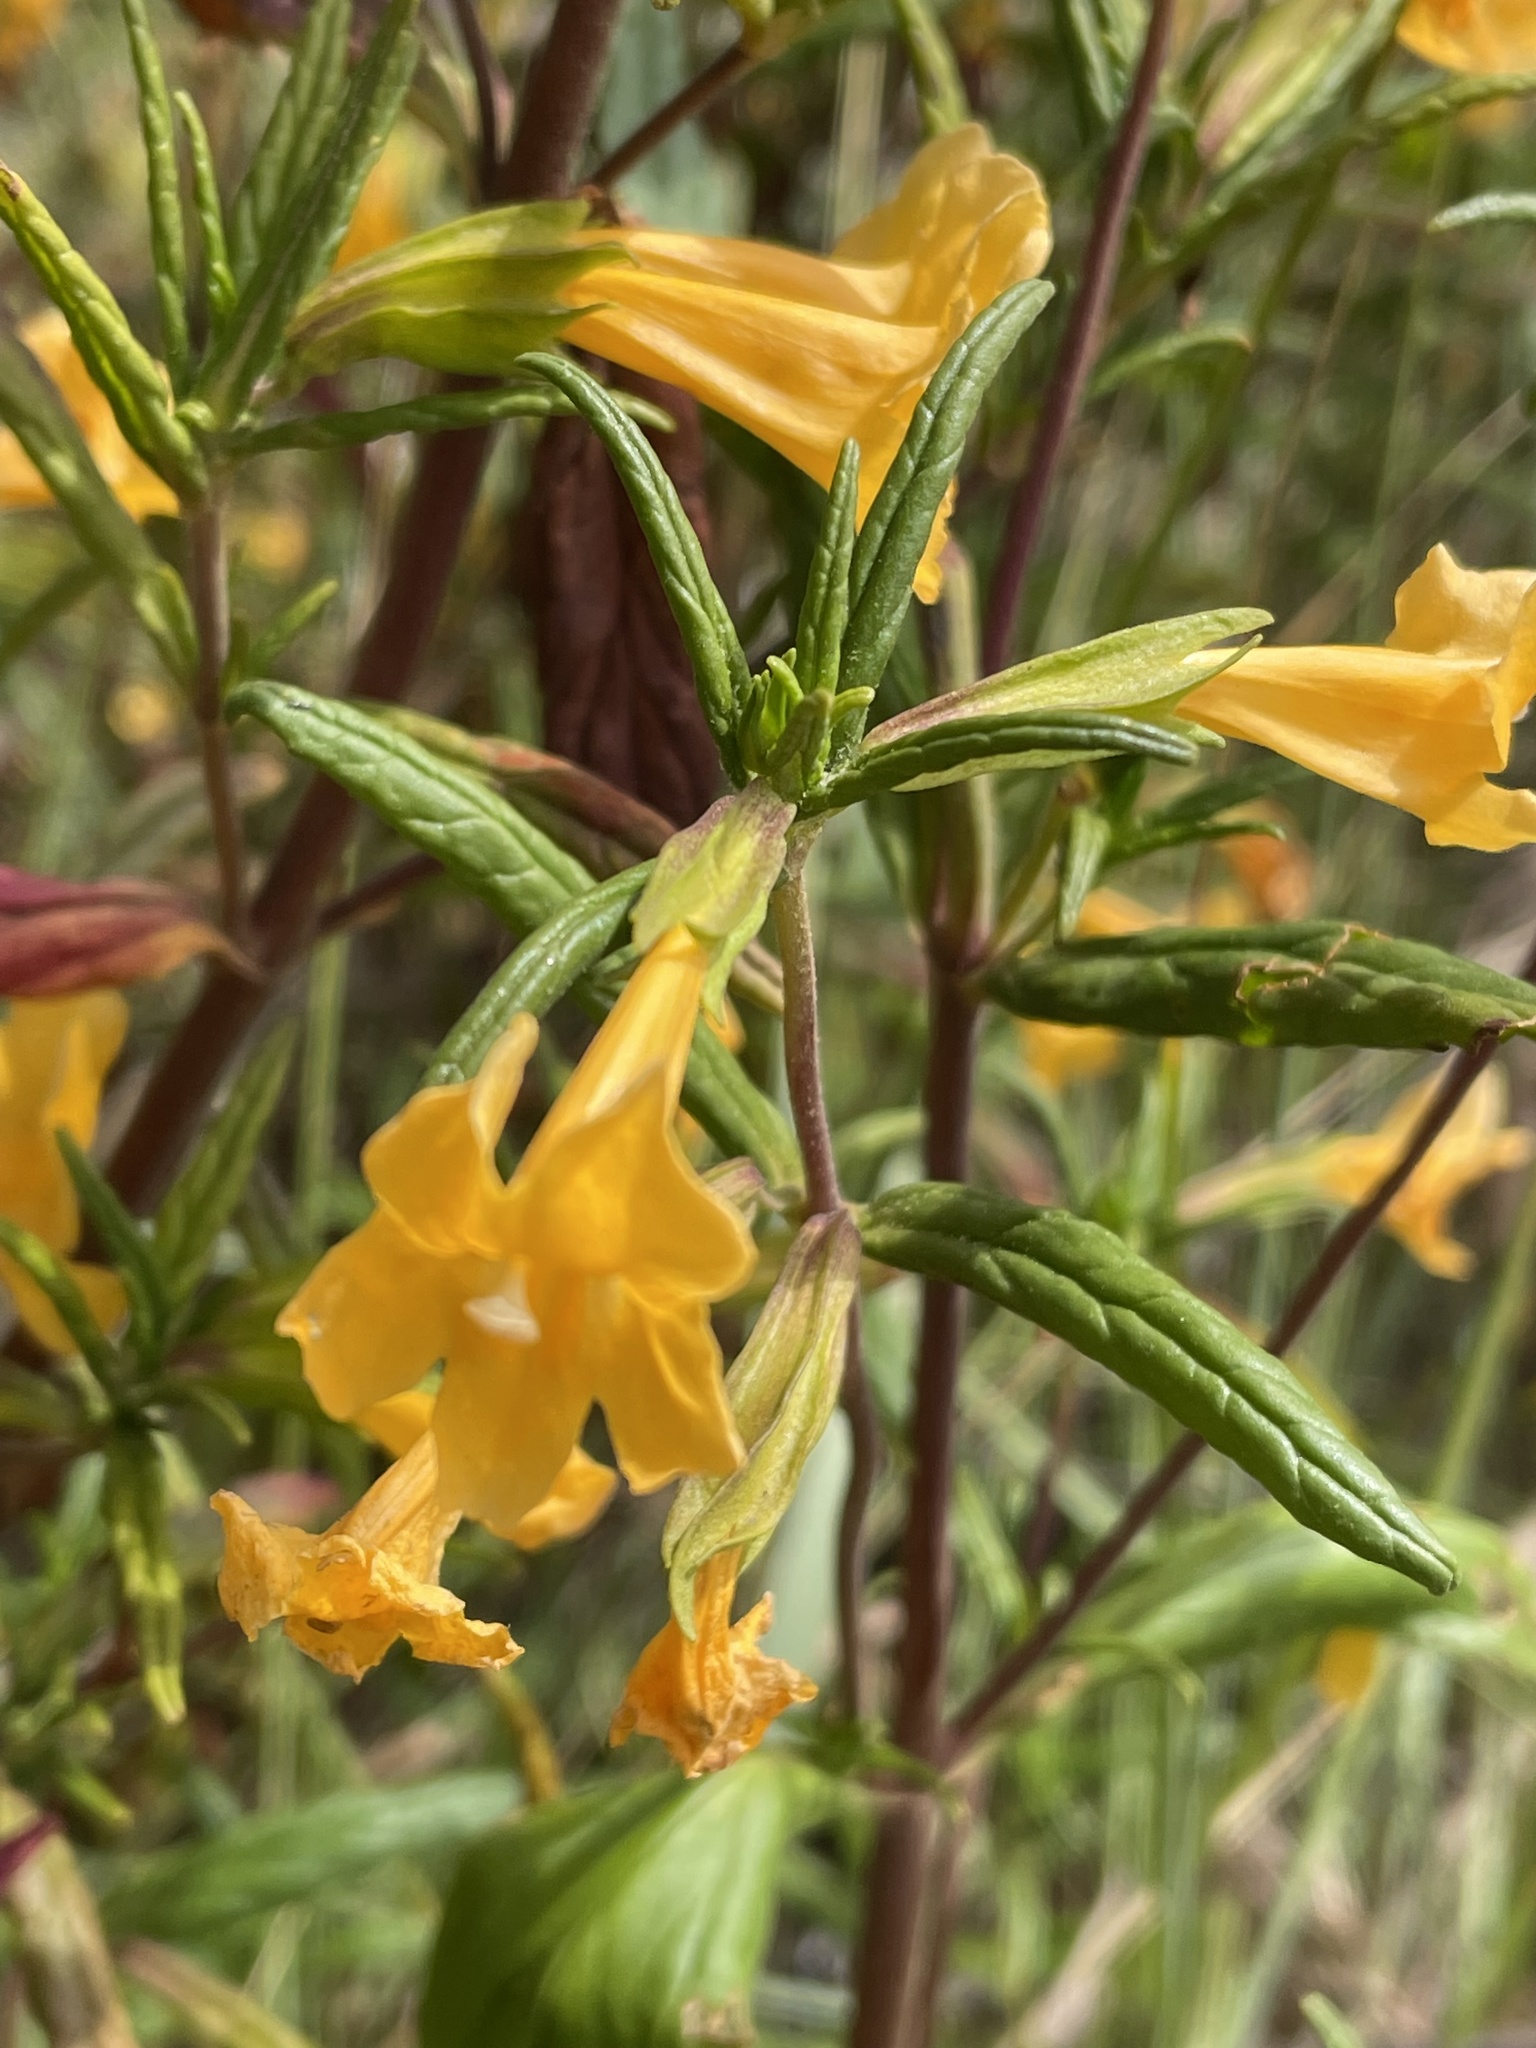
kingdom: Plantae
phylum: Tracheophyta
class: Magnoliopsida
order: Lamiales
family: Phrymaceae
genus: Diplacus
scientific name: Diplacus aurantiacus
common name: Bush monkey-flower
